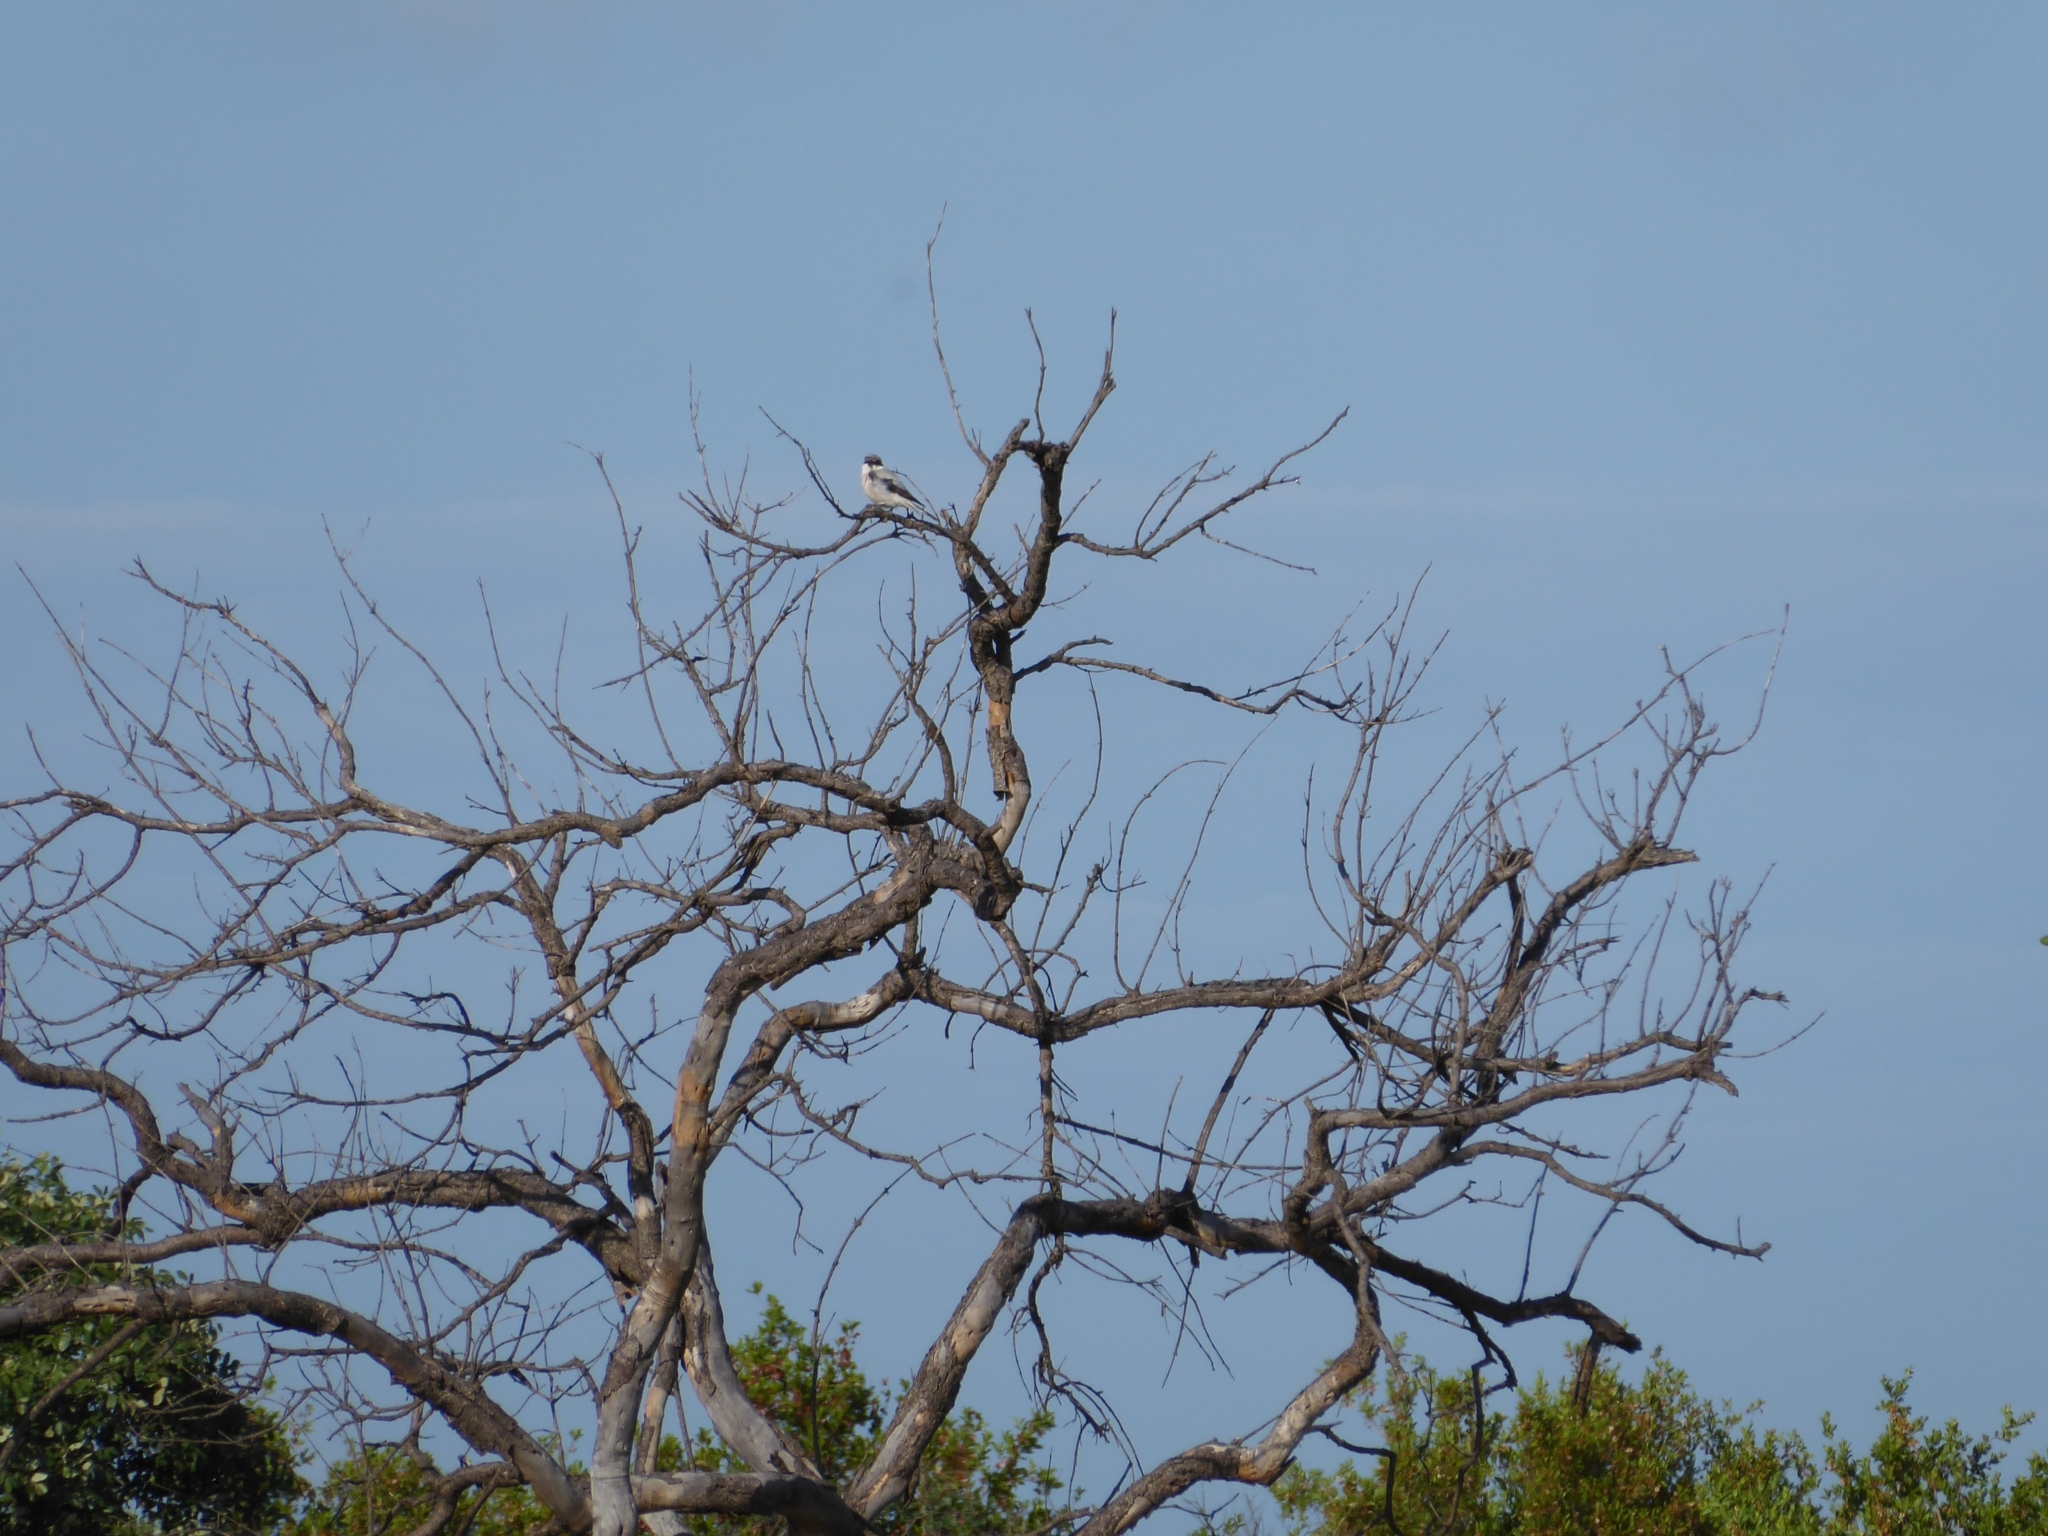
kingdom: Animalia
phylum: Chordata
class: Aves
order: Passeriformes
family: Laniidae
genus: Lanius
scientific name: Lanius minor
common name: Lesser grey shrike
